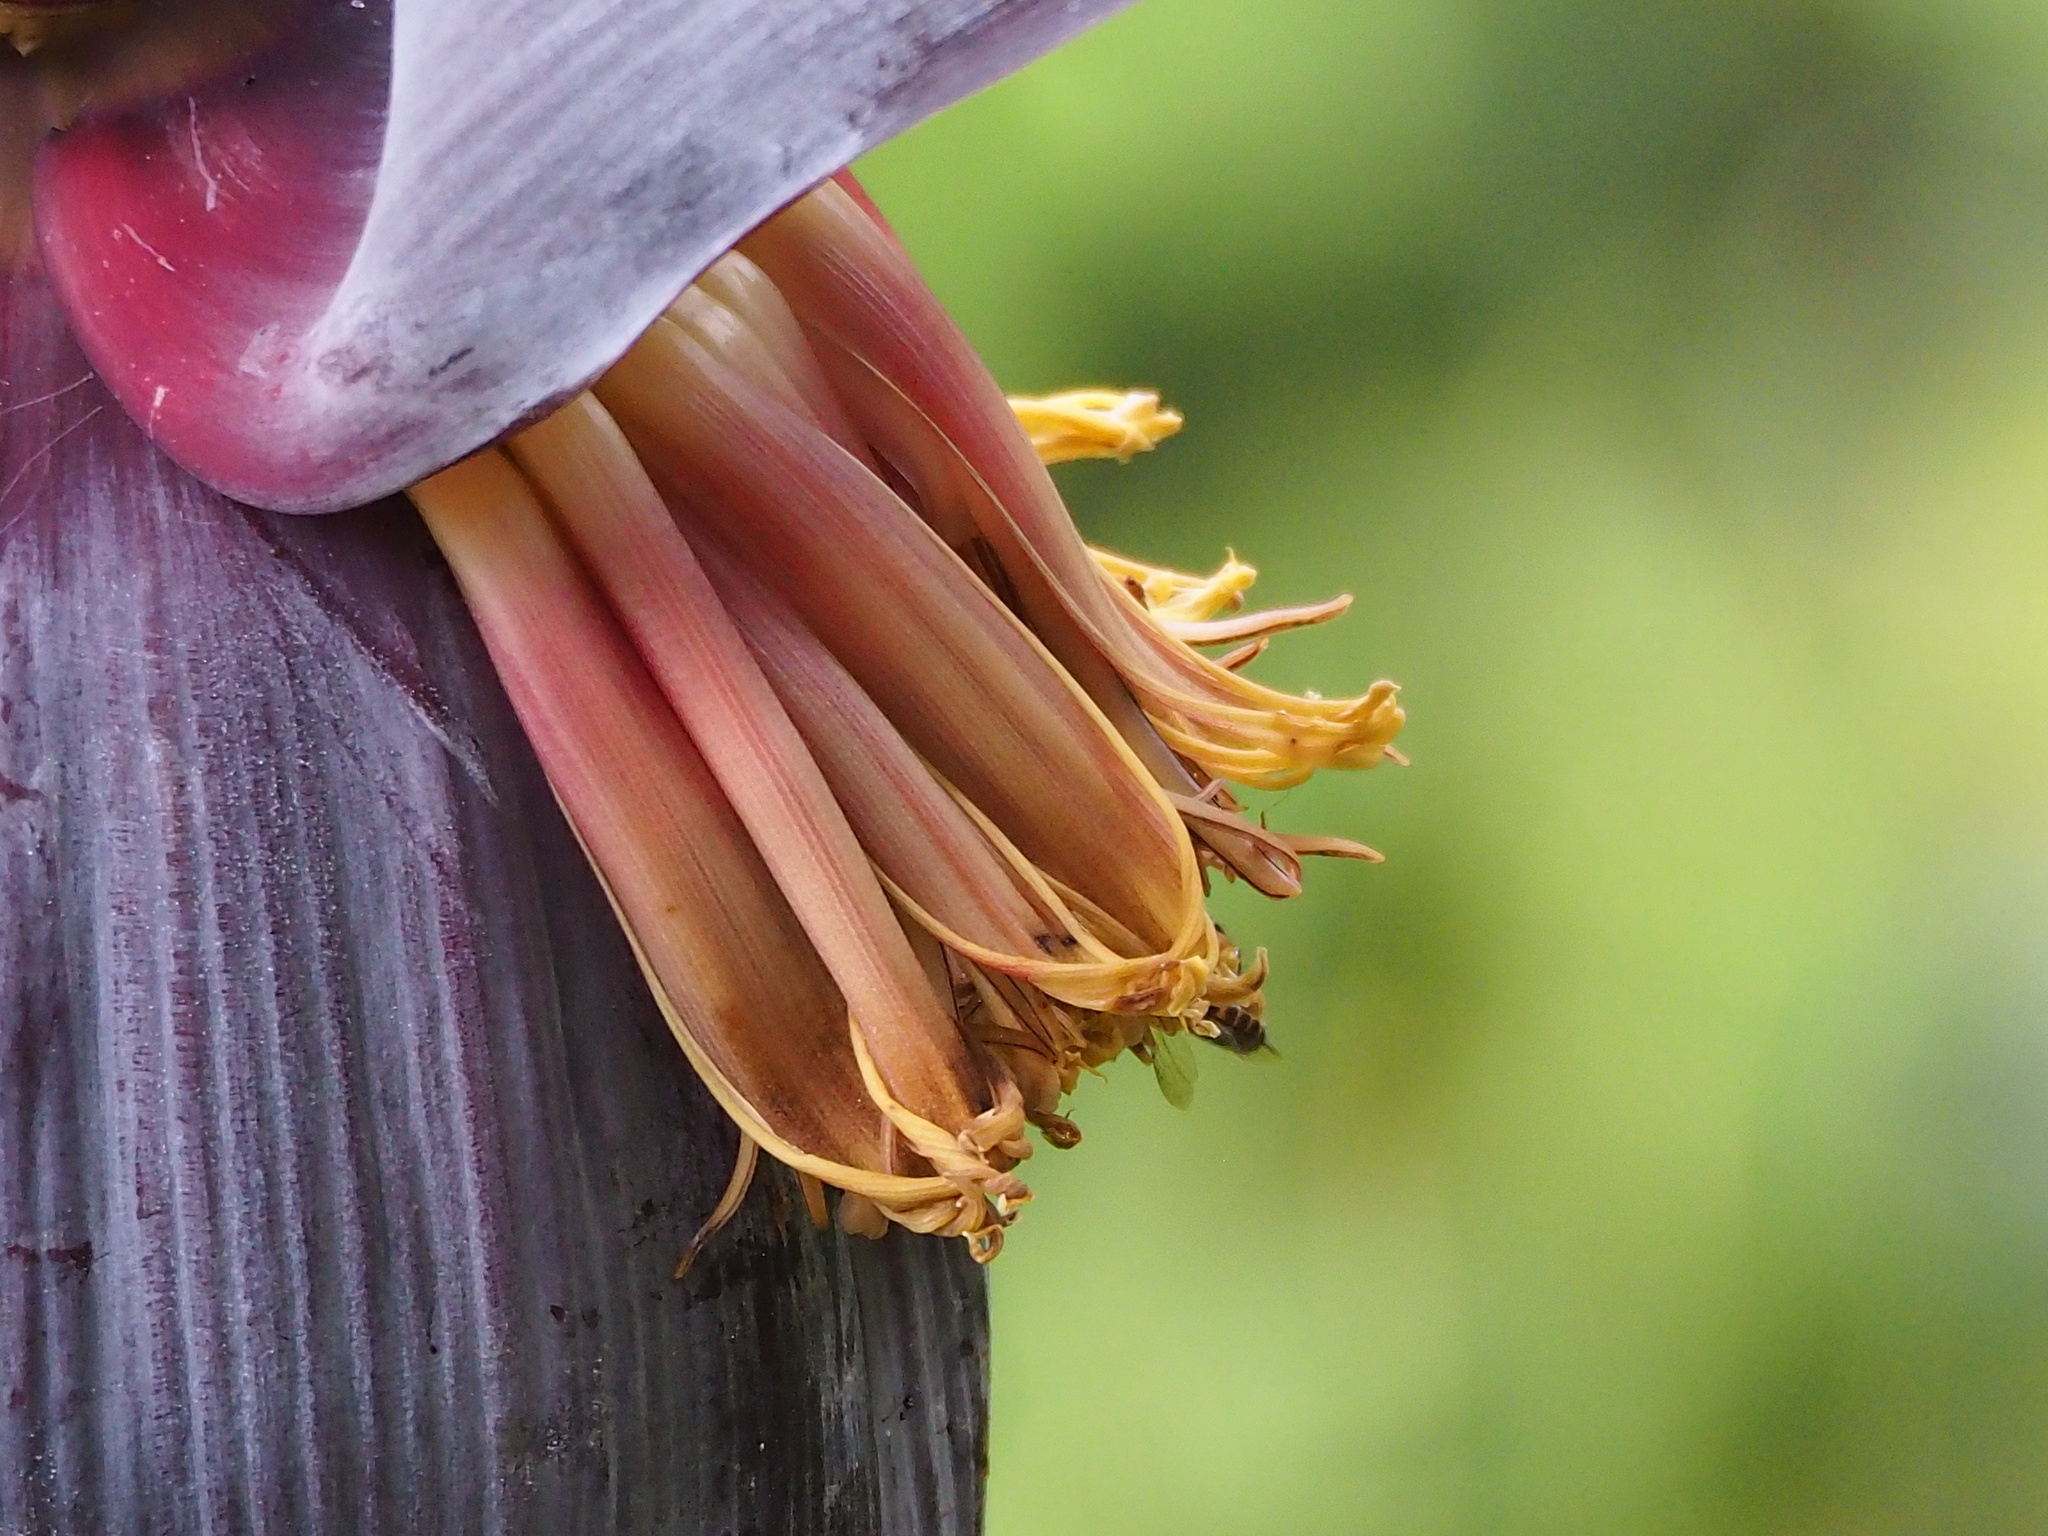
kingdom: Plantae
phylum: Tracheophyta
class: Liliopsida
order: Zingiberales
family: Musaceae
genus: Musa
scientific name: Musa paradisiaca
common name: French plantain
